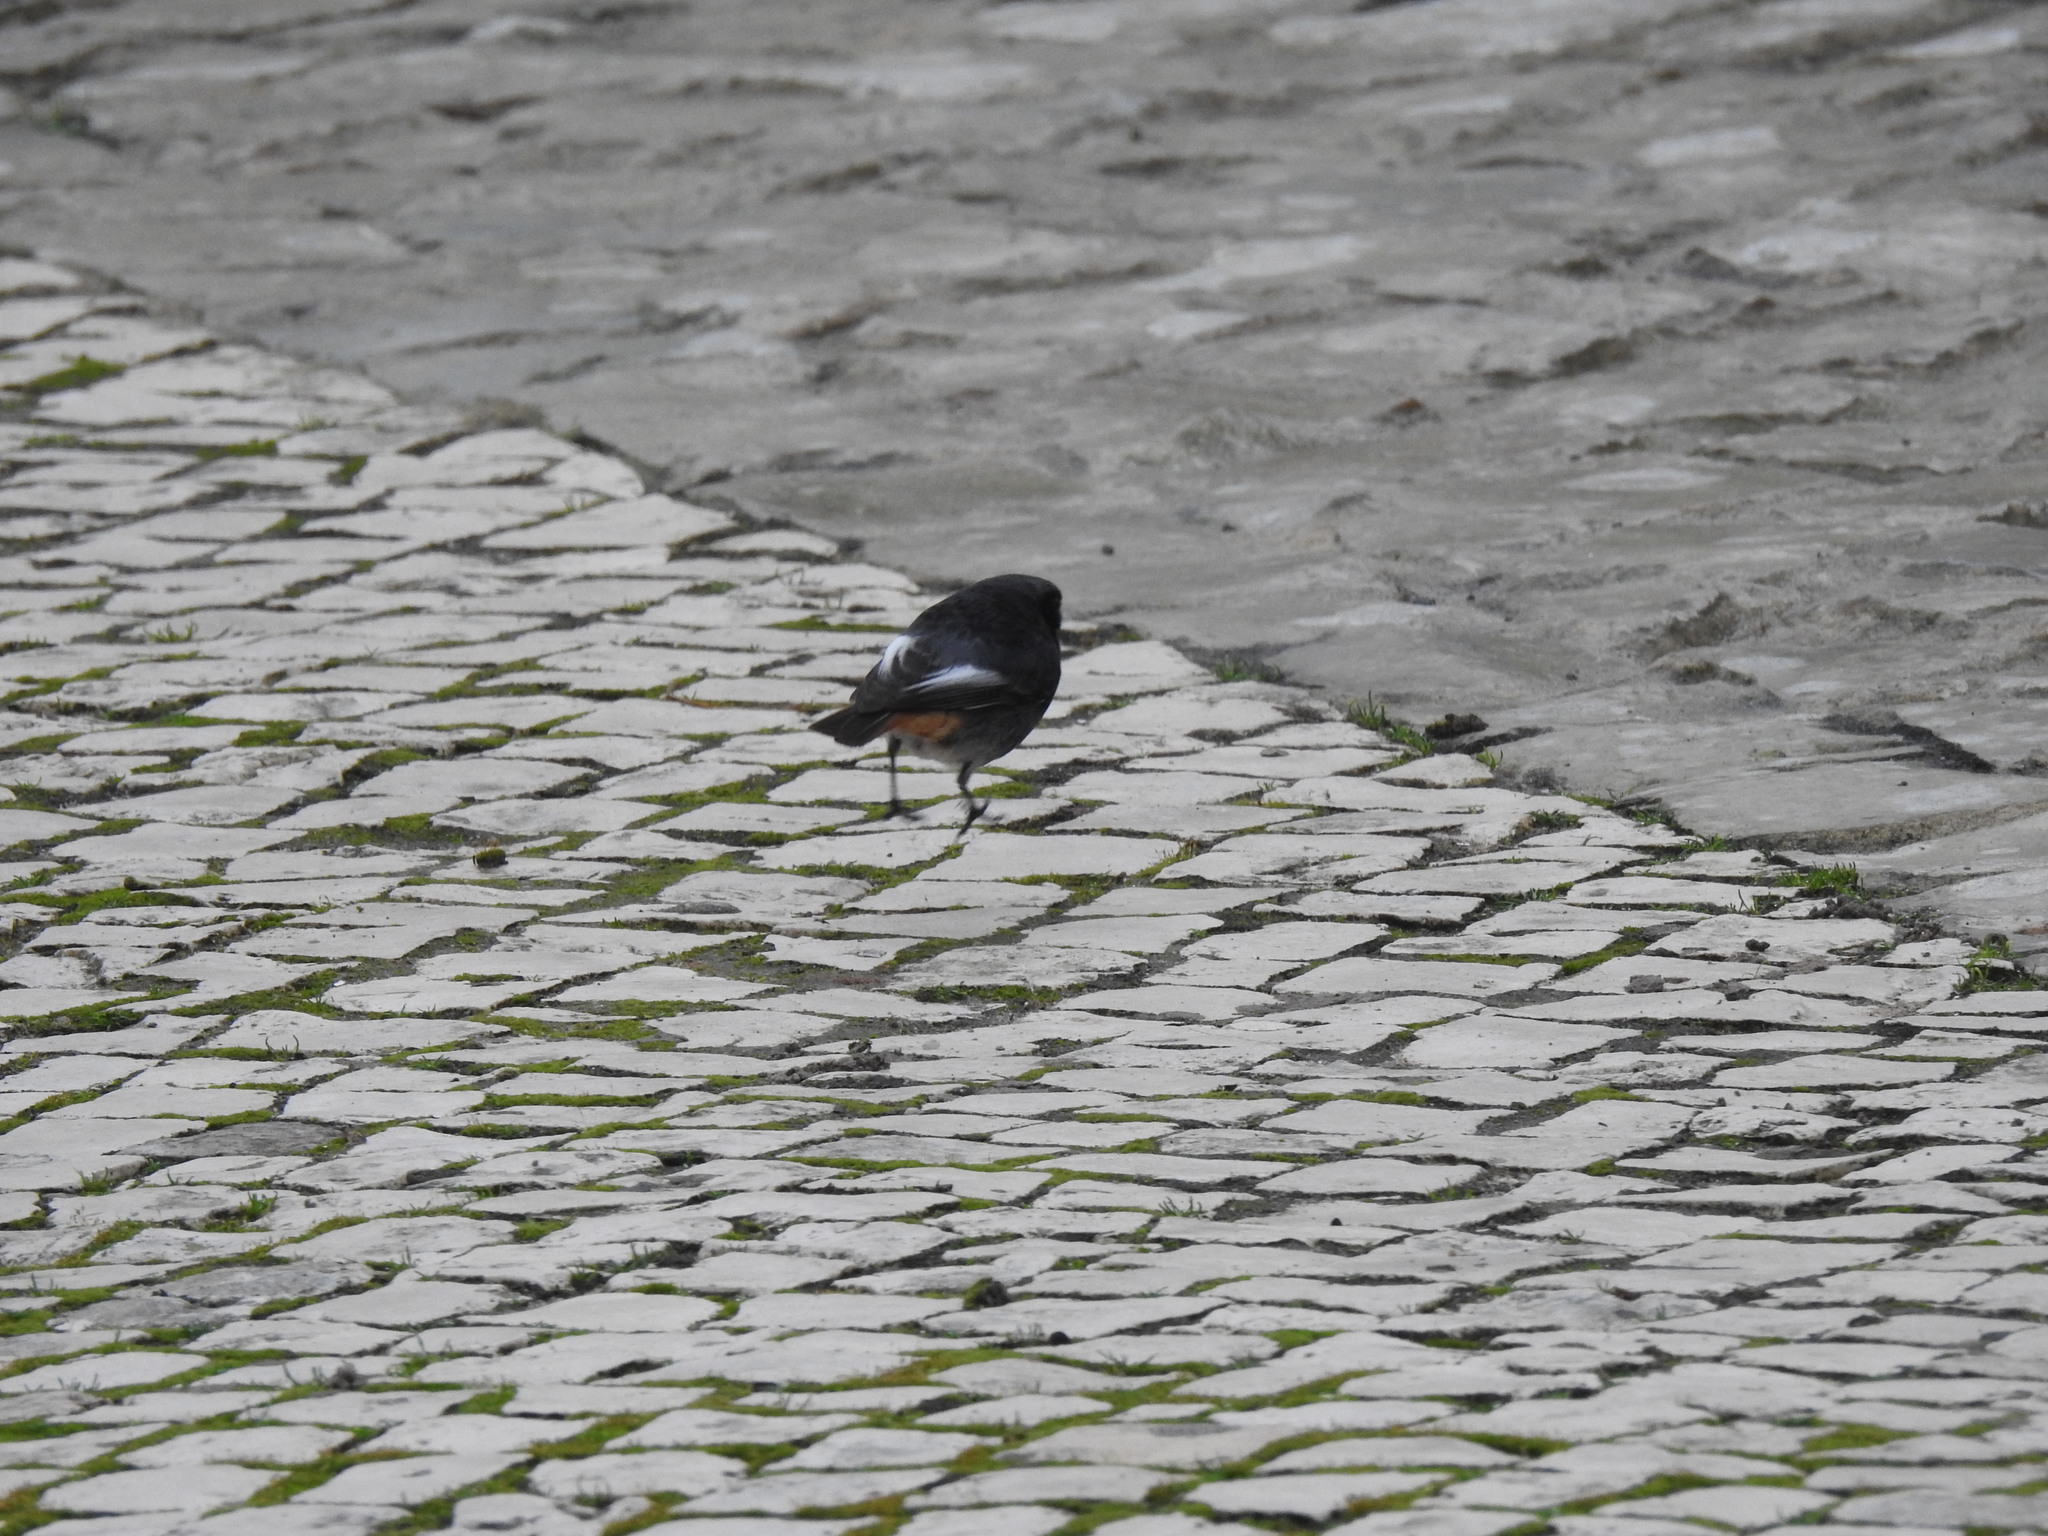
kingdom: Animalia
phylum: Chordata
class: Aves
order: Passeriformes
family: Muscicapidae
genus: Phoenicurus
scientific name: Phoenicurus ochruros
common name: Black redstart
